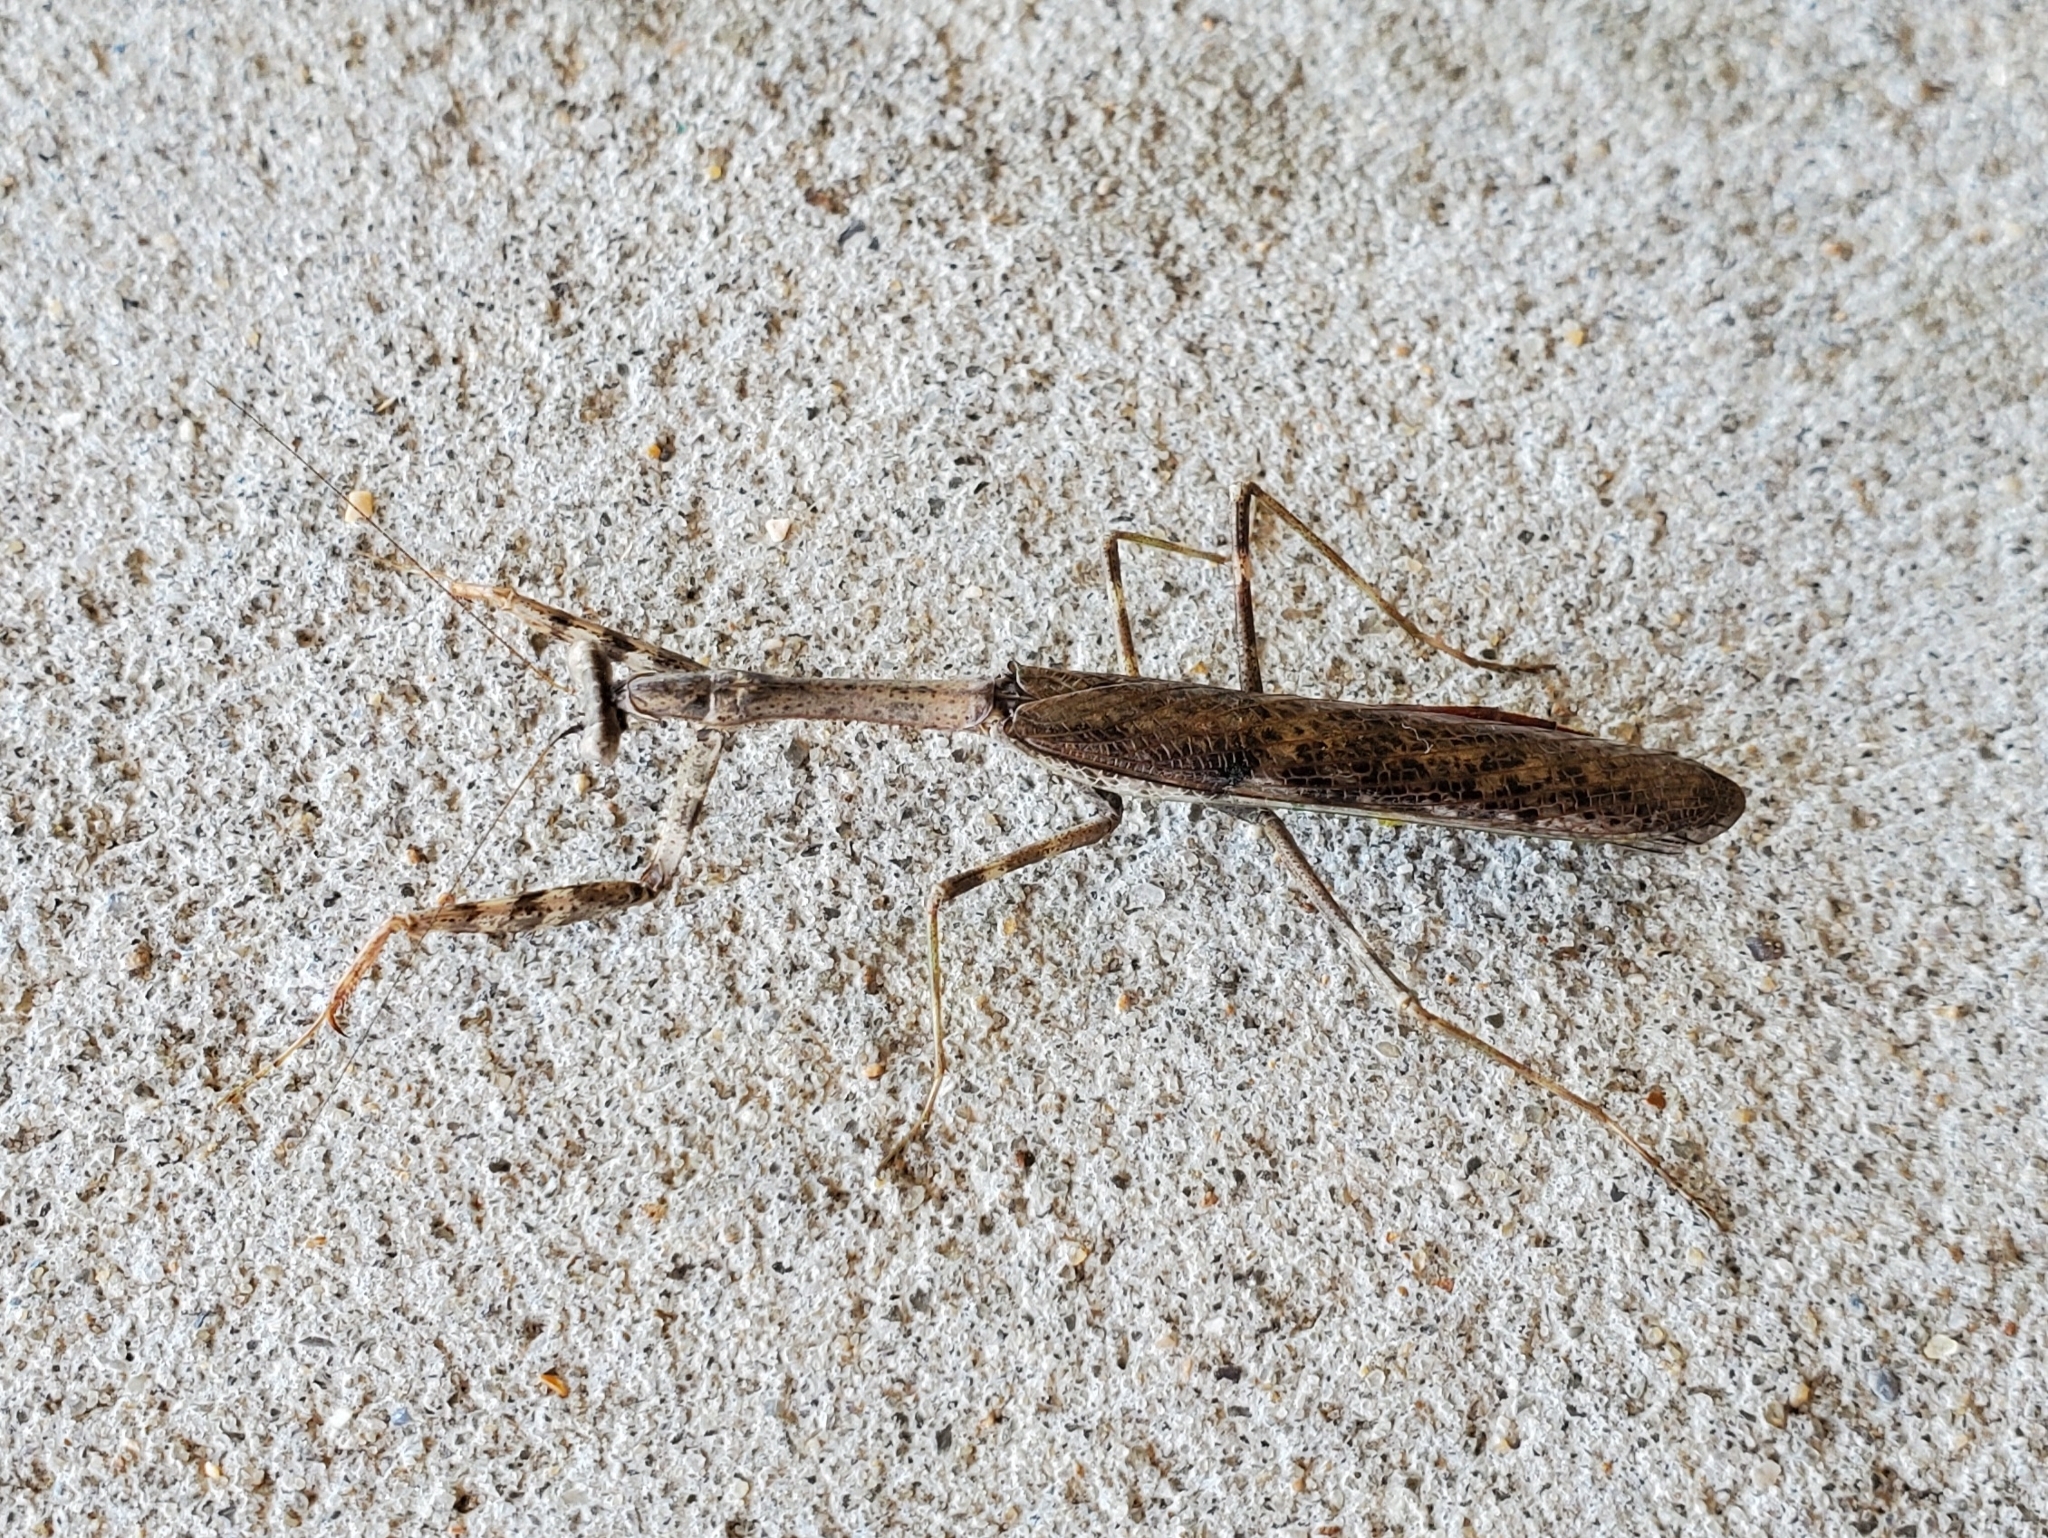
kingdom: Animalia
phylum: Arthropoda
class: Insecta
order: Mantodea
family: Mantidae
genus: Stagmomantis
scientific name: Stagmomantis carolina
